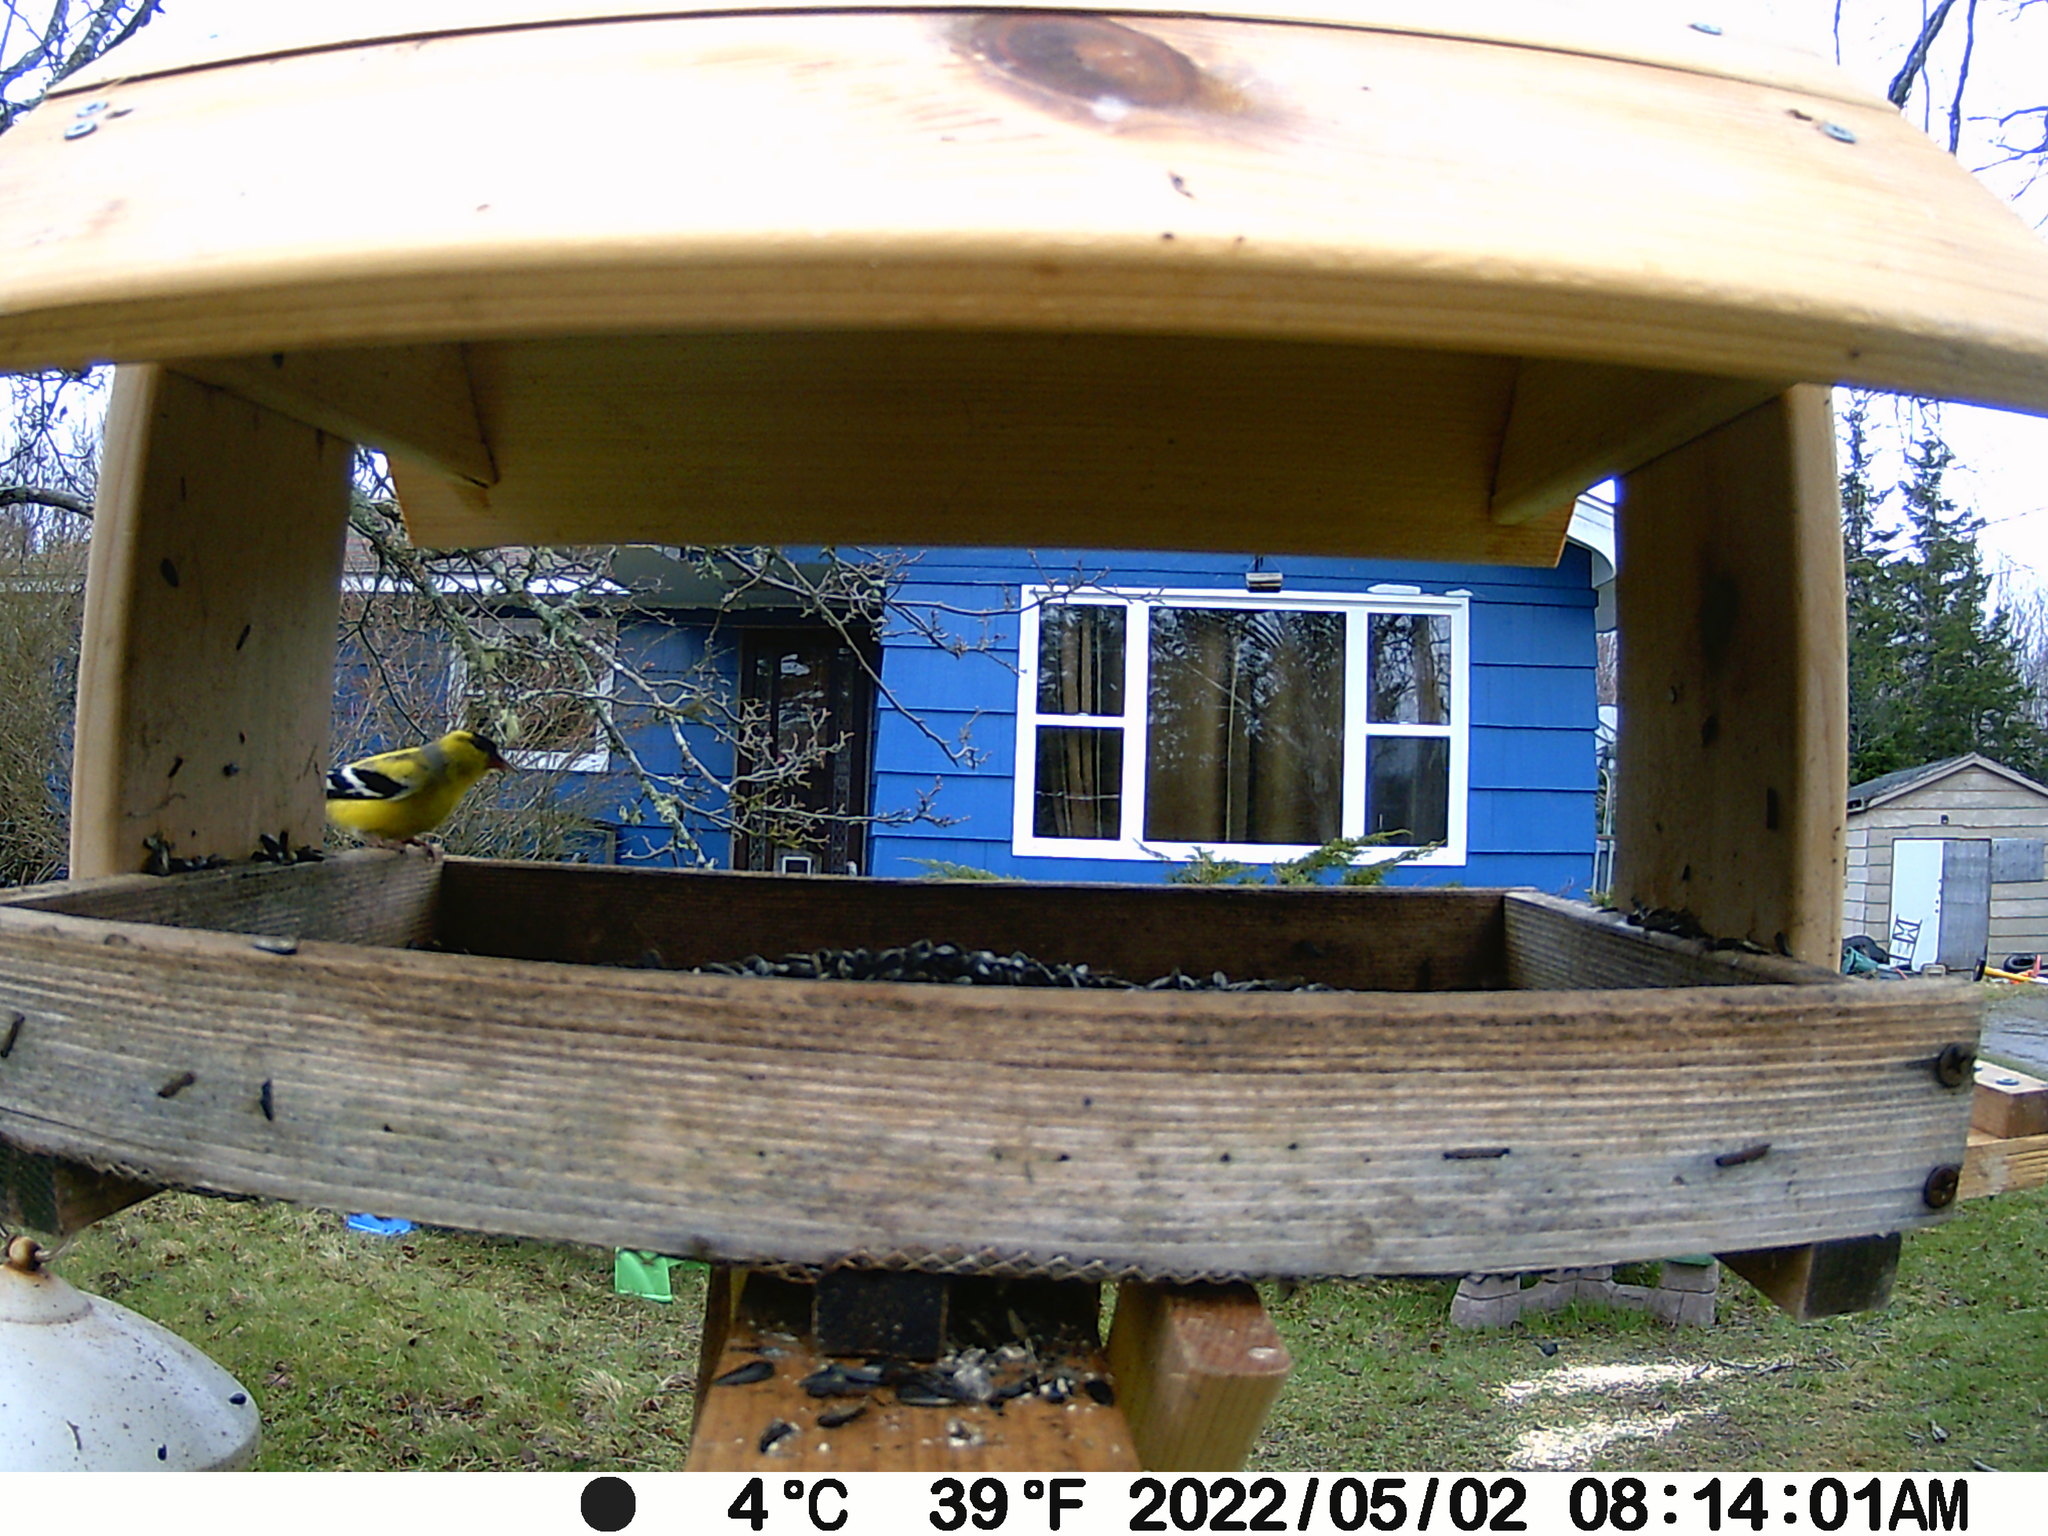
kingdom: Animalia
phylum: Chordata
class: Aves
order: Passeriformes
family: Fringillidae
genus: Spinus
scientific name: Spinus tristis
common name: American goldfinch
